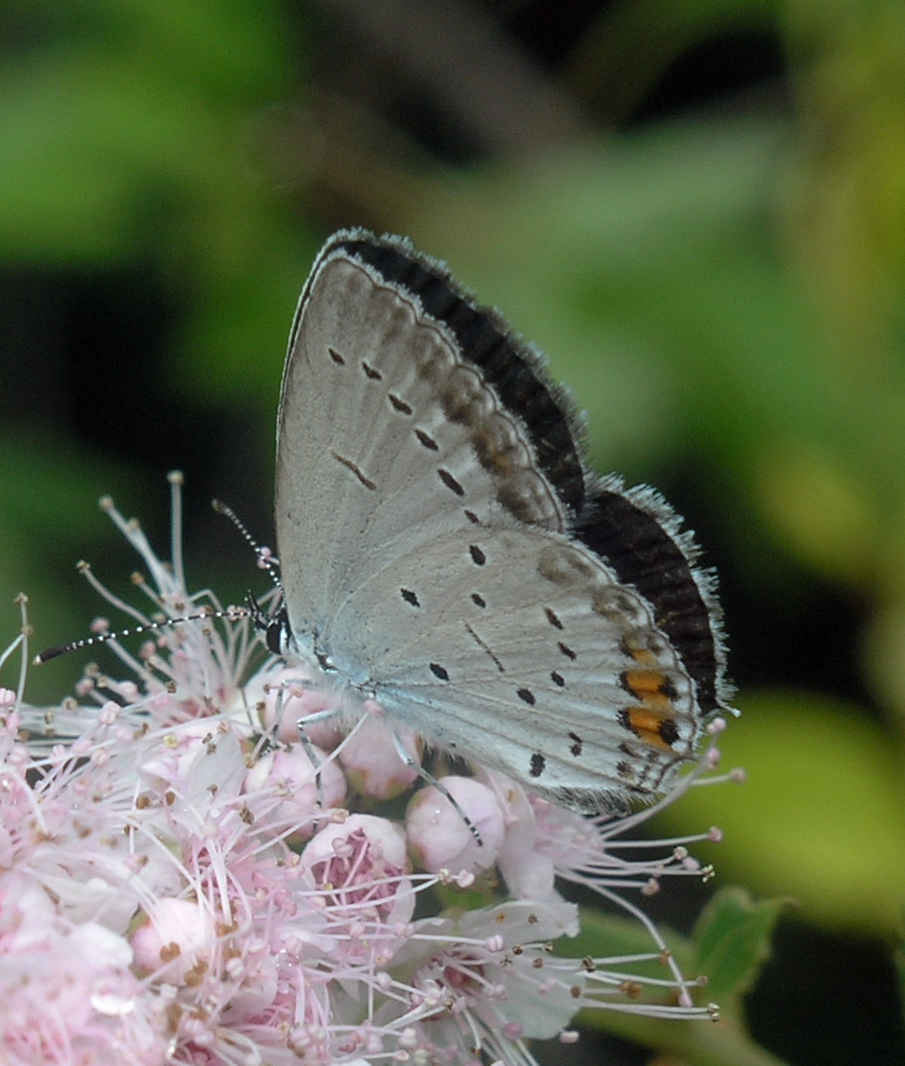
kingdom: Animalia
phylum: Arthropoda
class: Insecta
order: Lepidoptera
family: Lycaenidae
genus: Elkalyce
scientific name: Elkalyce argiades
